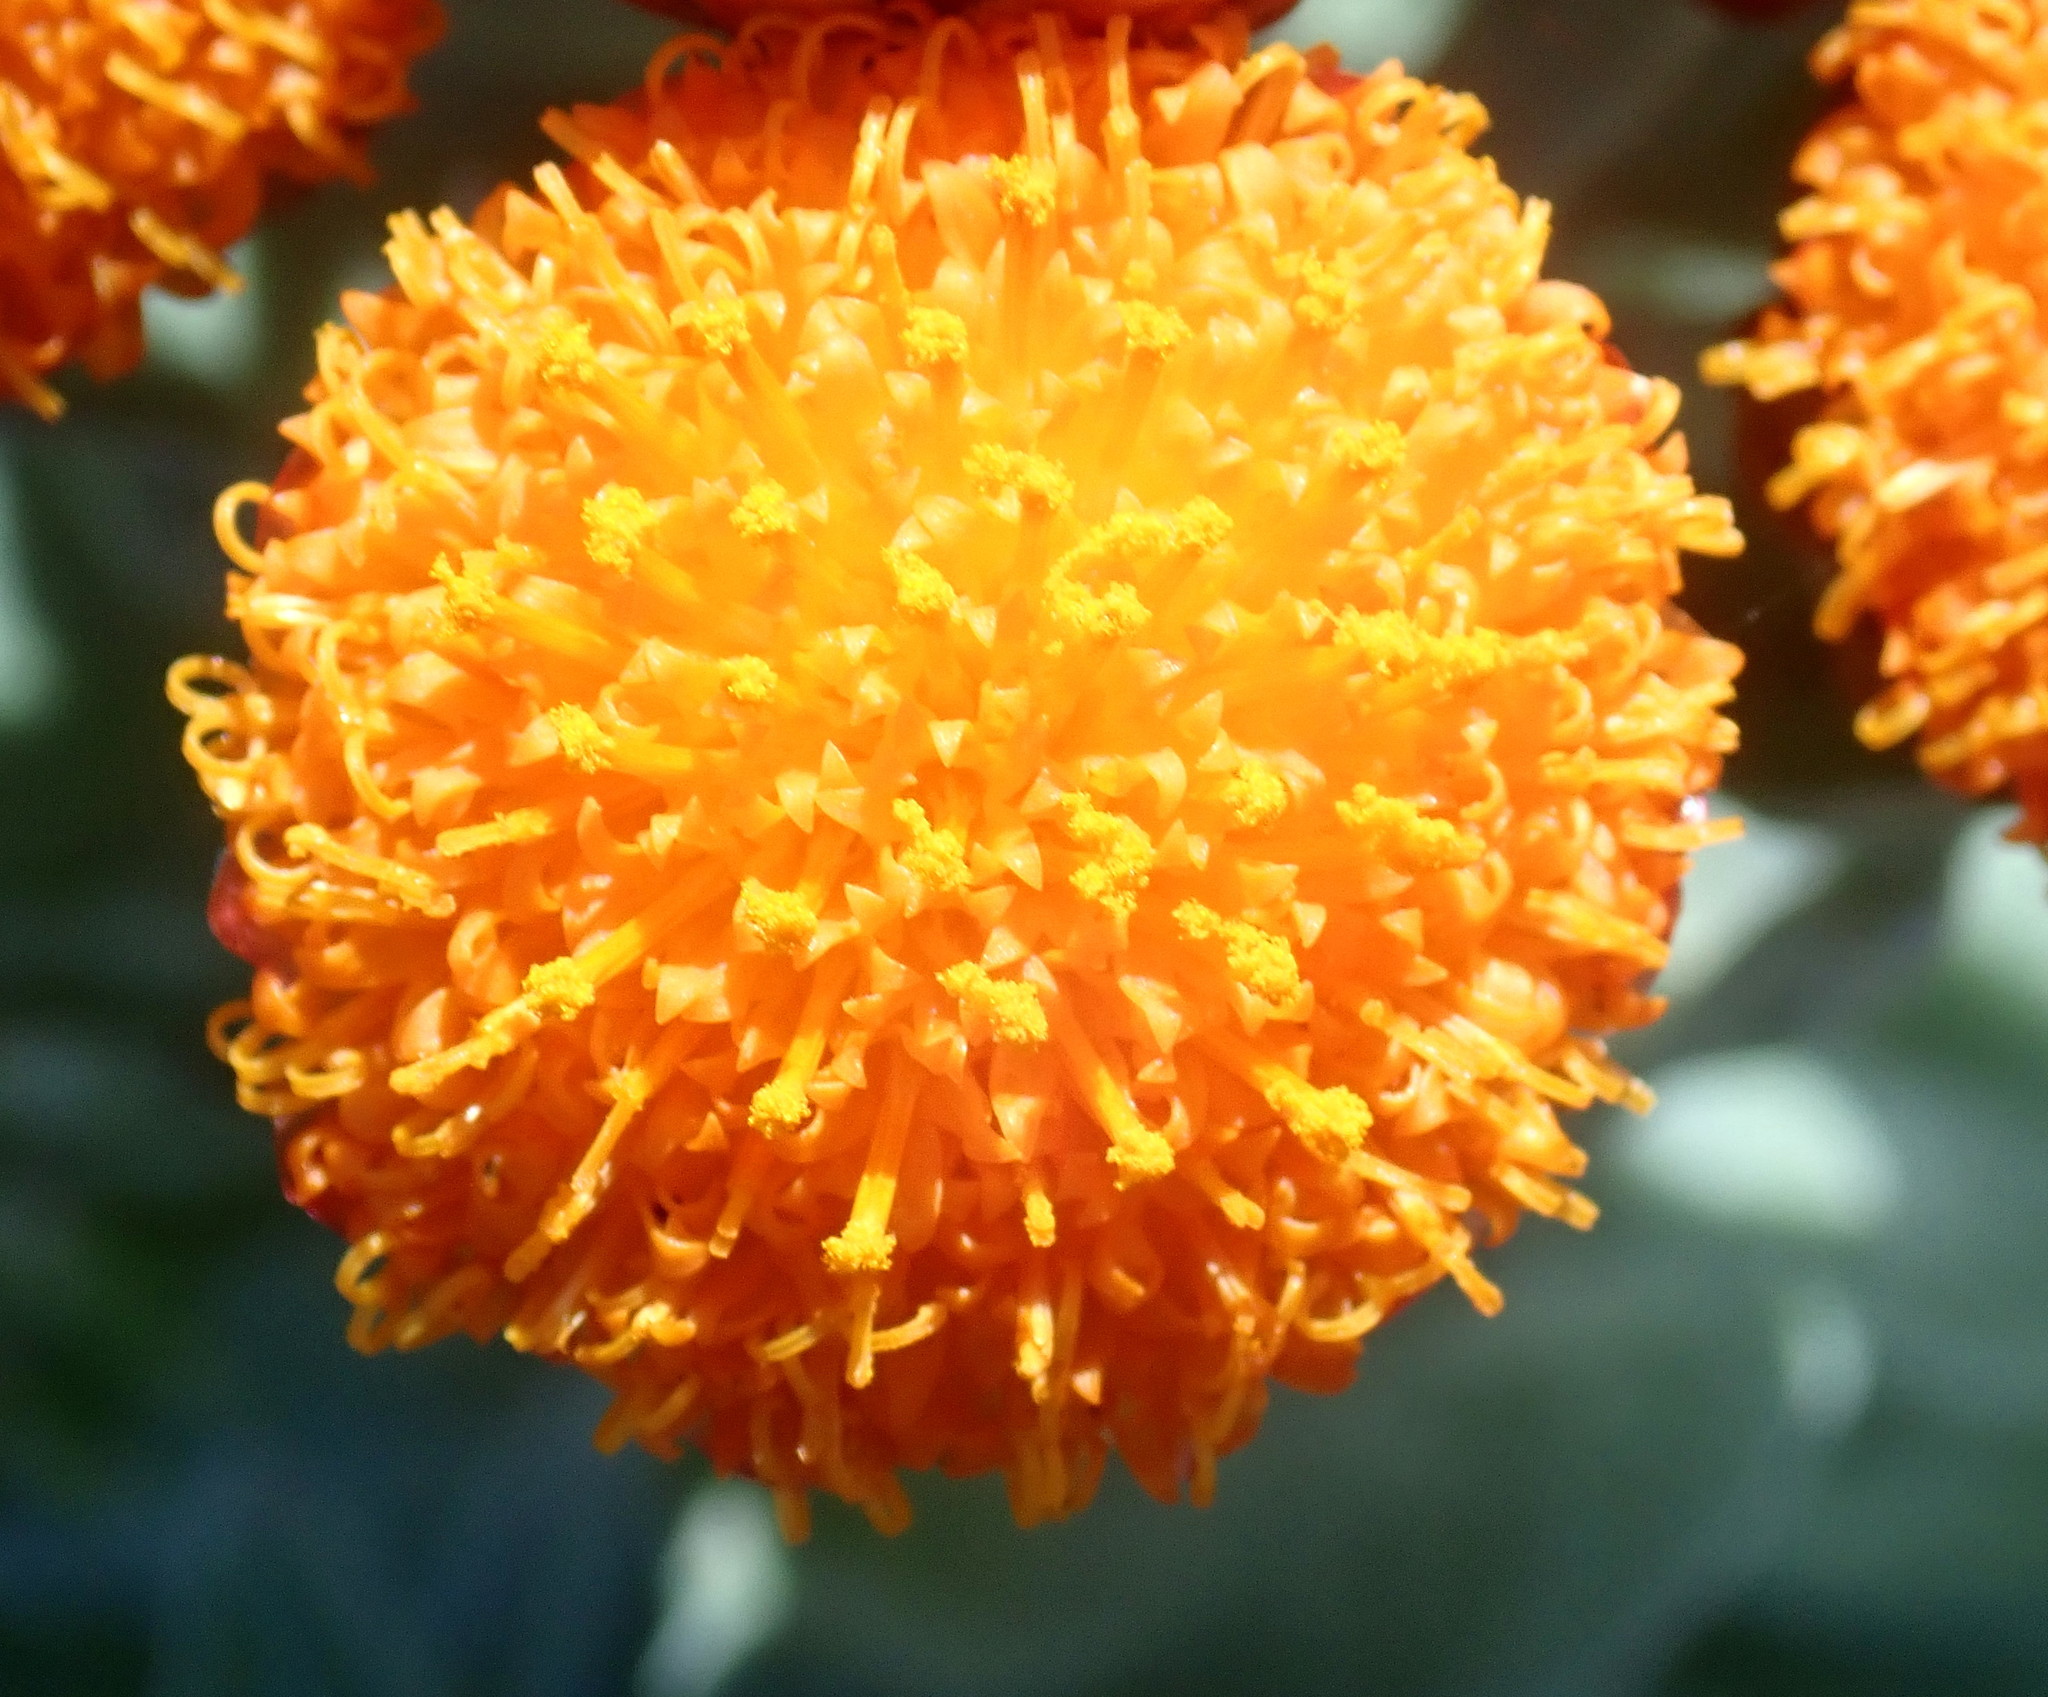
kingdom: Plantae
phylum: Tracheophyta
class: Magnoliopsida
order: Asterales
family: Asteraceae
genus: Syncarpha
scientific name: Syncarpha eximia
